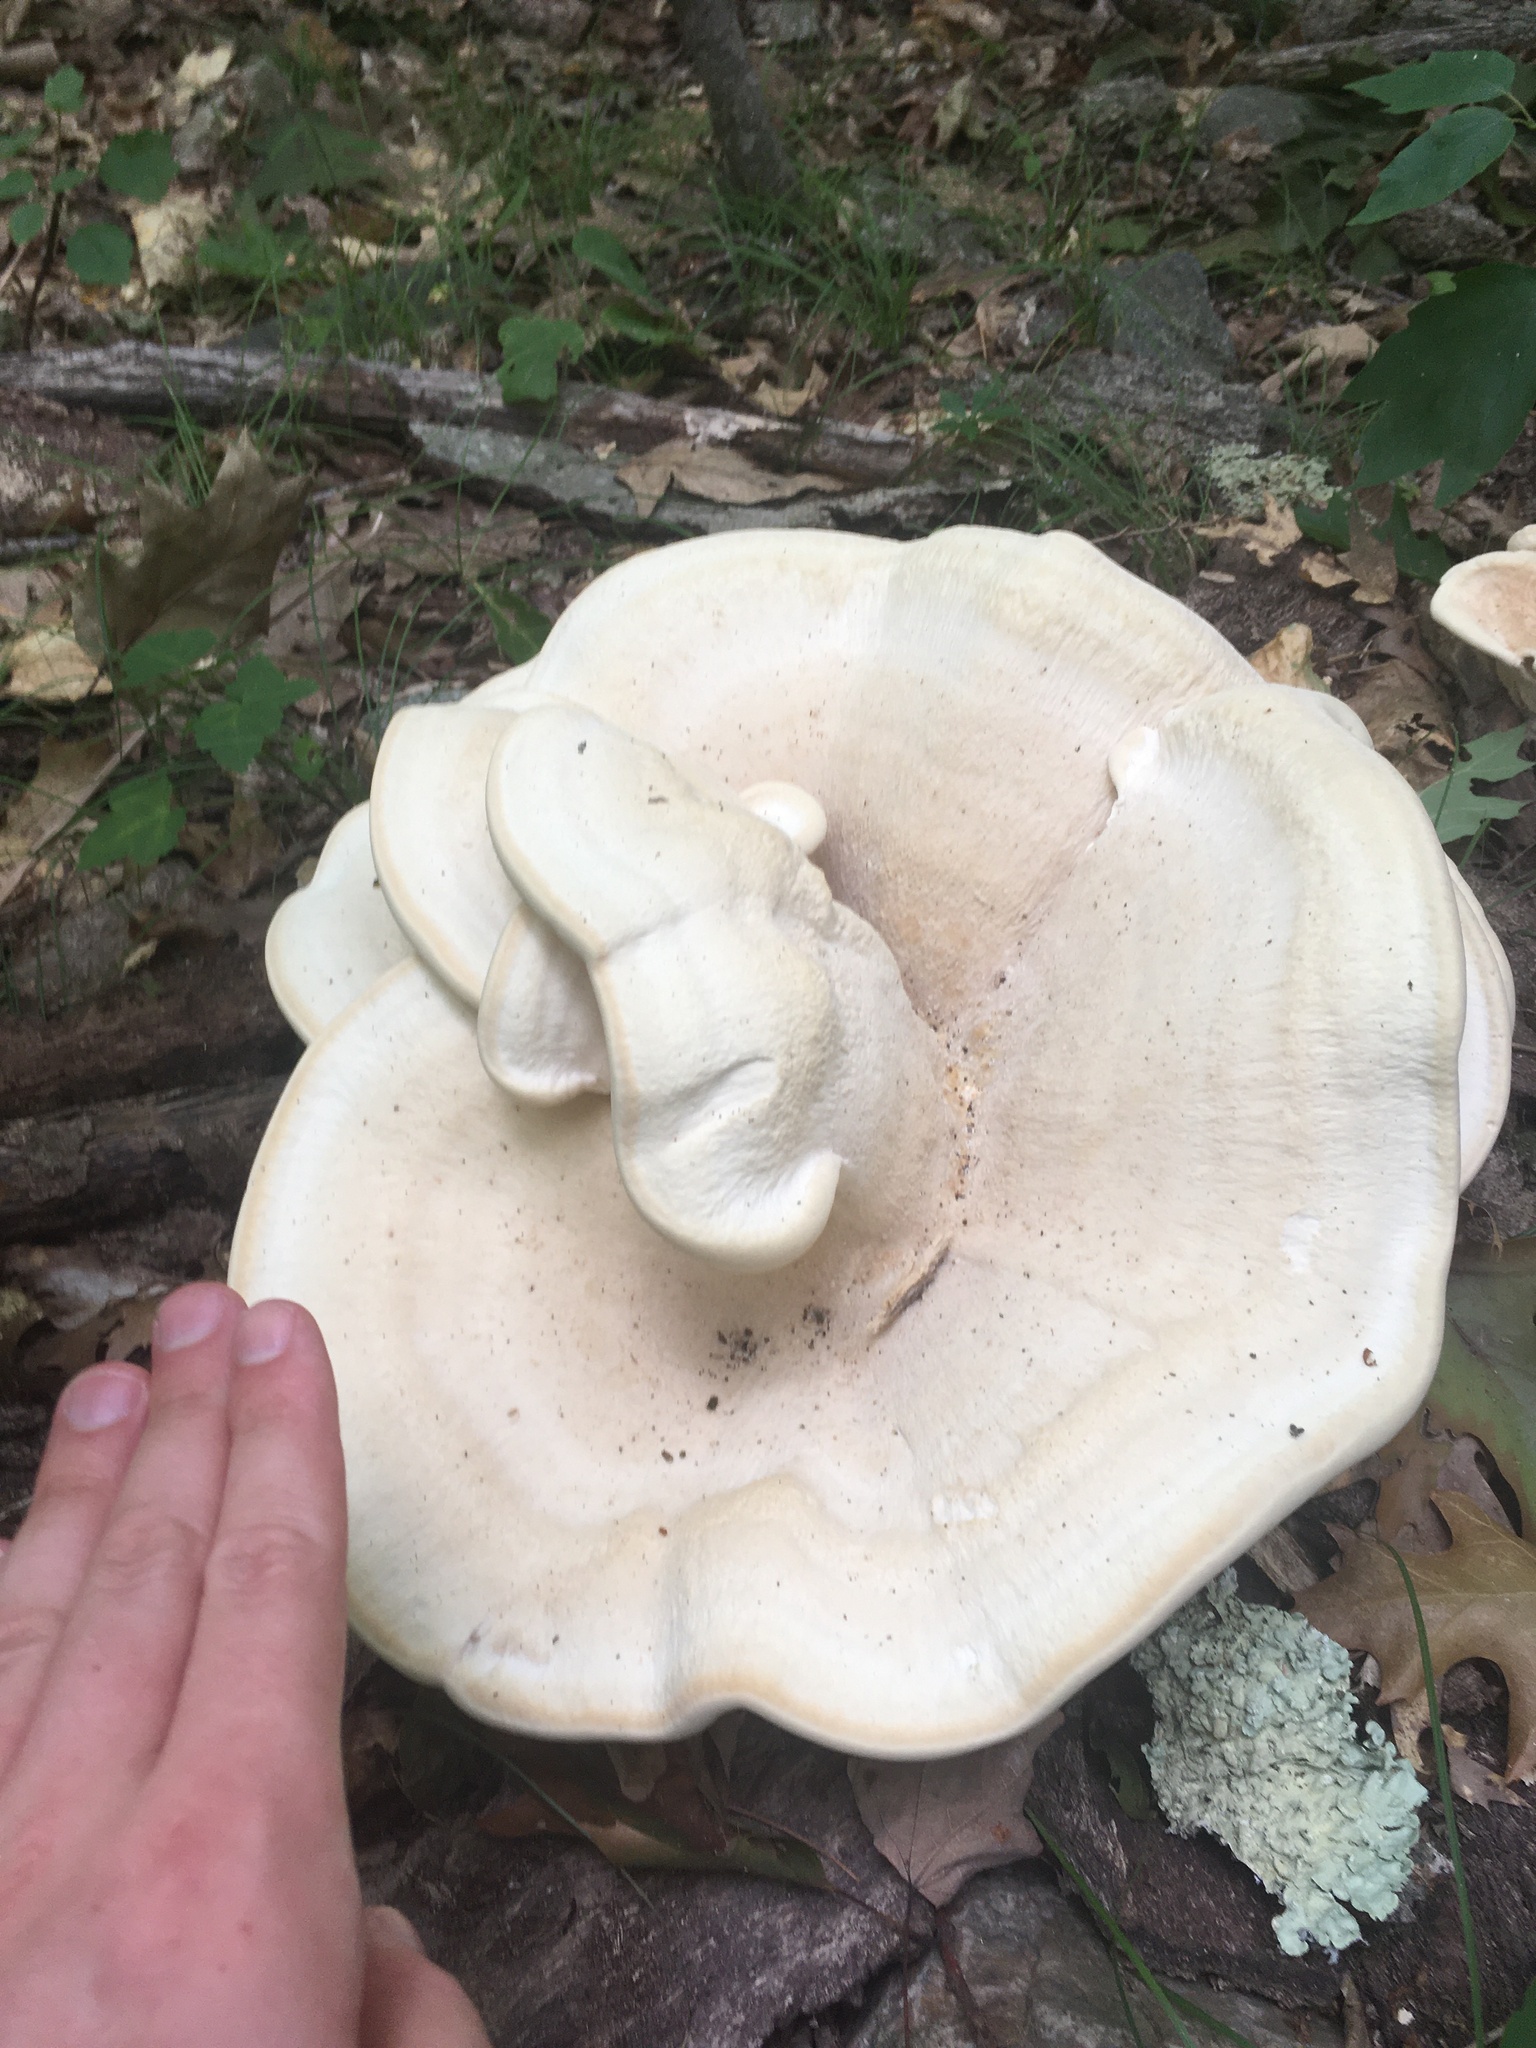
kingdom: Fungi
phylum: Basidiomycota
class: Agaricomycetes
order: Russulales
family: Bondarzewiaceae
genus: Bondarzewia
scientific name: Bondarzewia berkeleyi
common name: Berkeley's polypore
